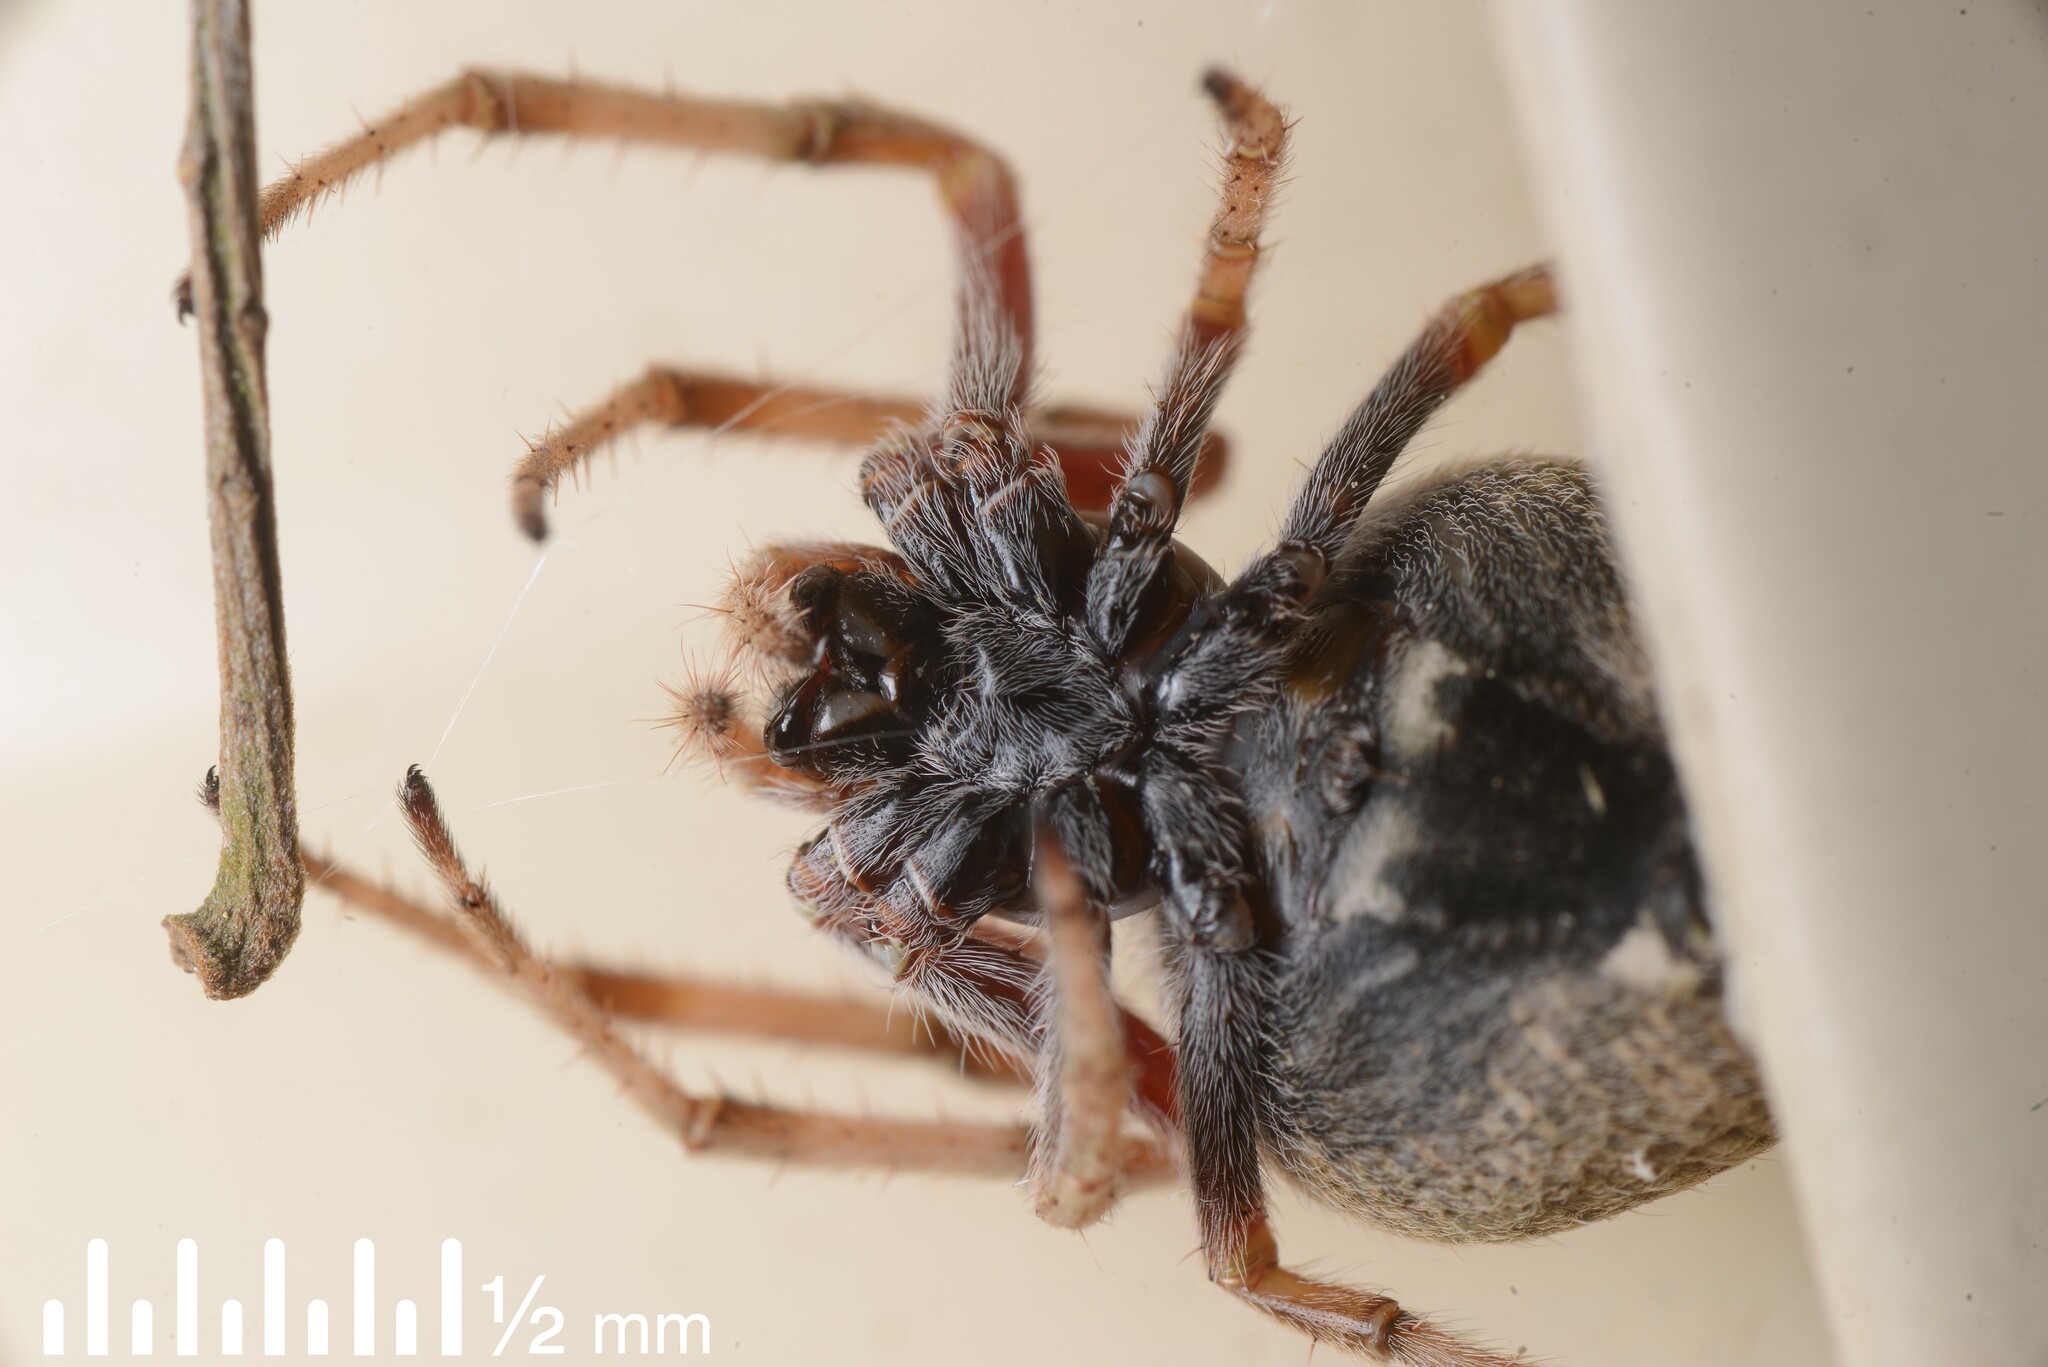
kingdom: Animalia
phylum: Arthropoda
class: Arachnida
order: Araneae
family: Araneidae
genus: Eriophora
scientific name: Eriophora pustulosa
